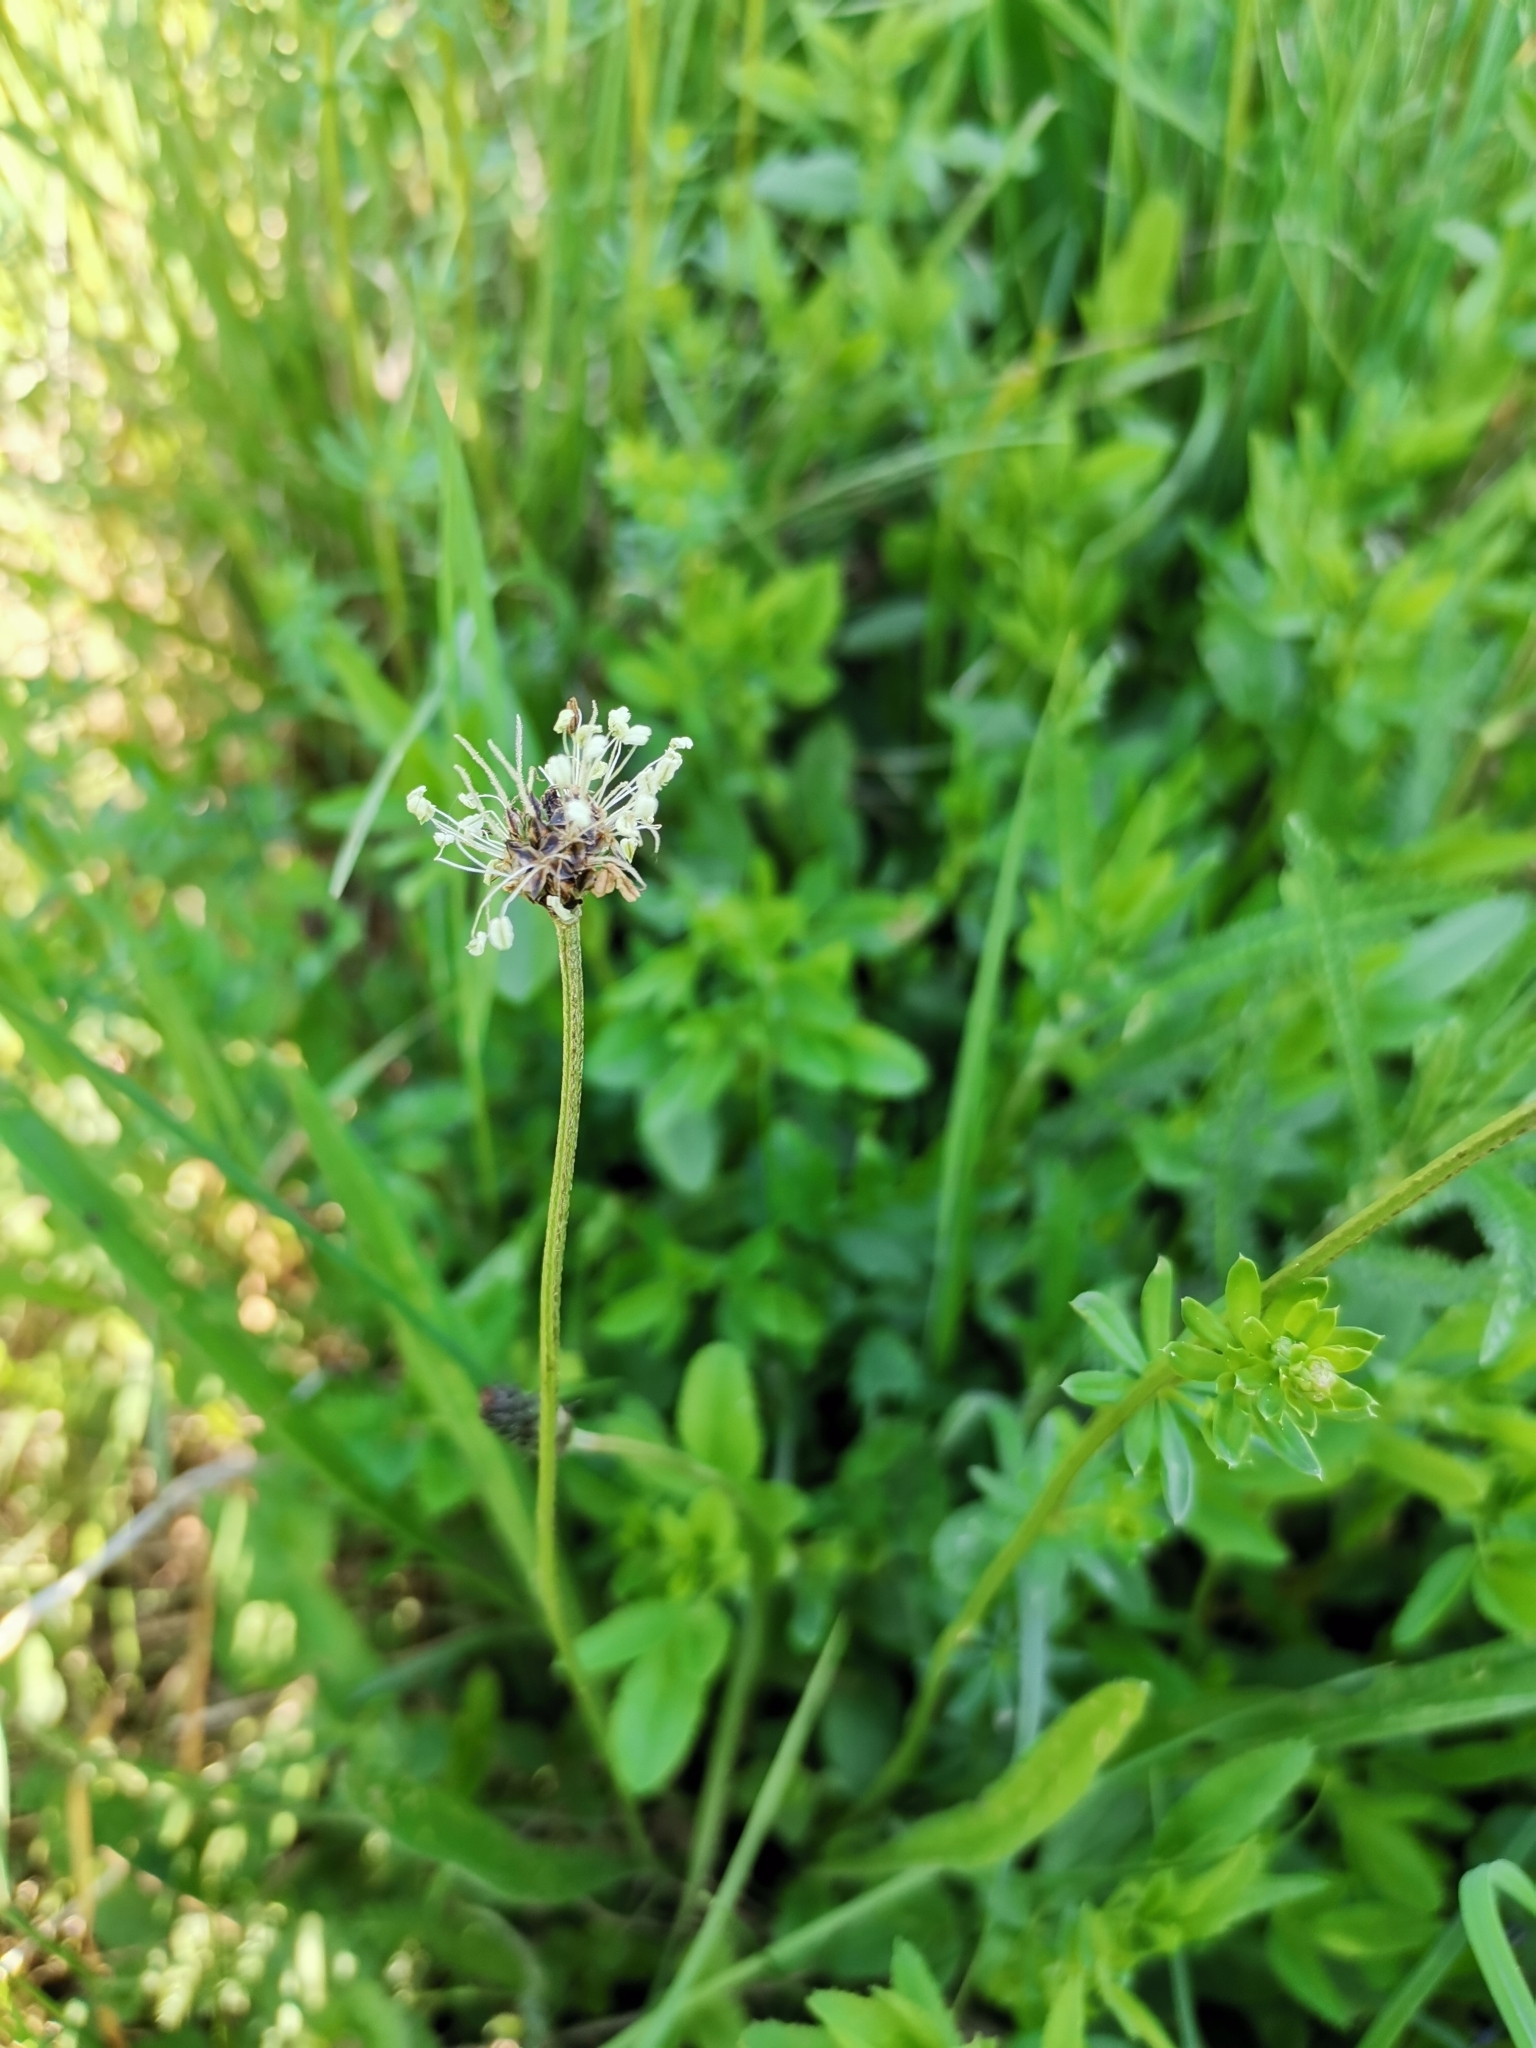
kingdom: Plantae
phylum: Tracheophyta
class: Magnoliopsida
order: Lamiales
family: Plantaginaceae
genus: Plantago
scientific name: Plantago lanceolata
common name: Ribwort plantain
